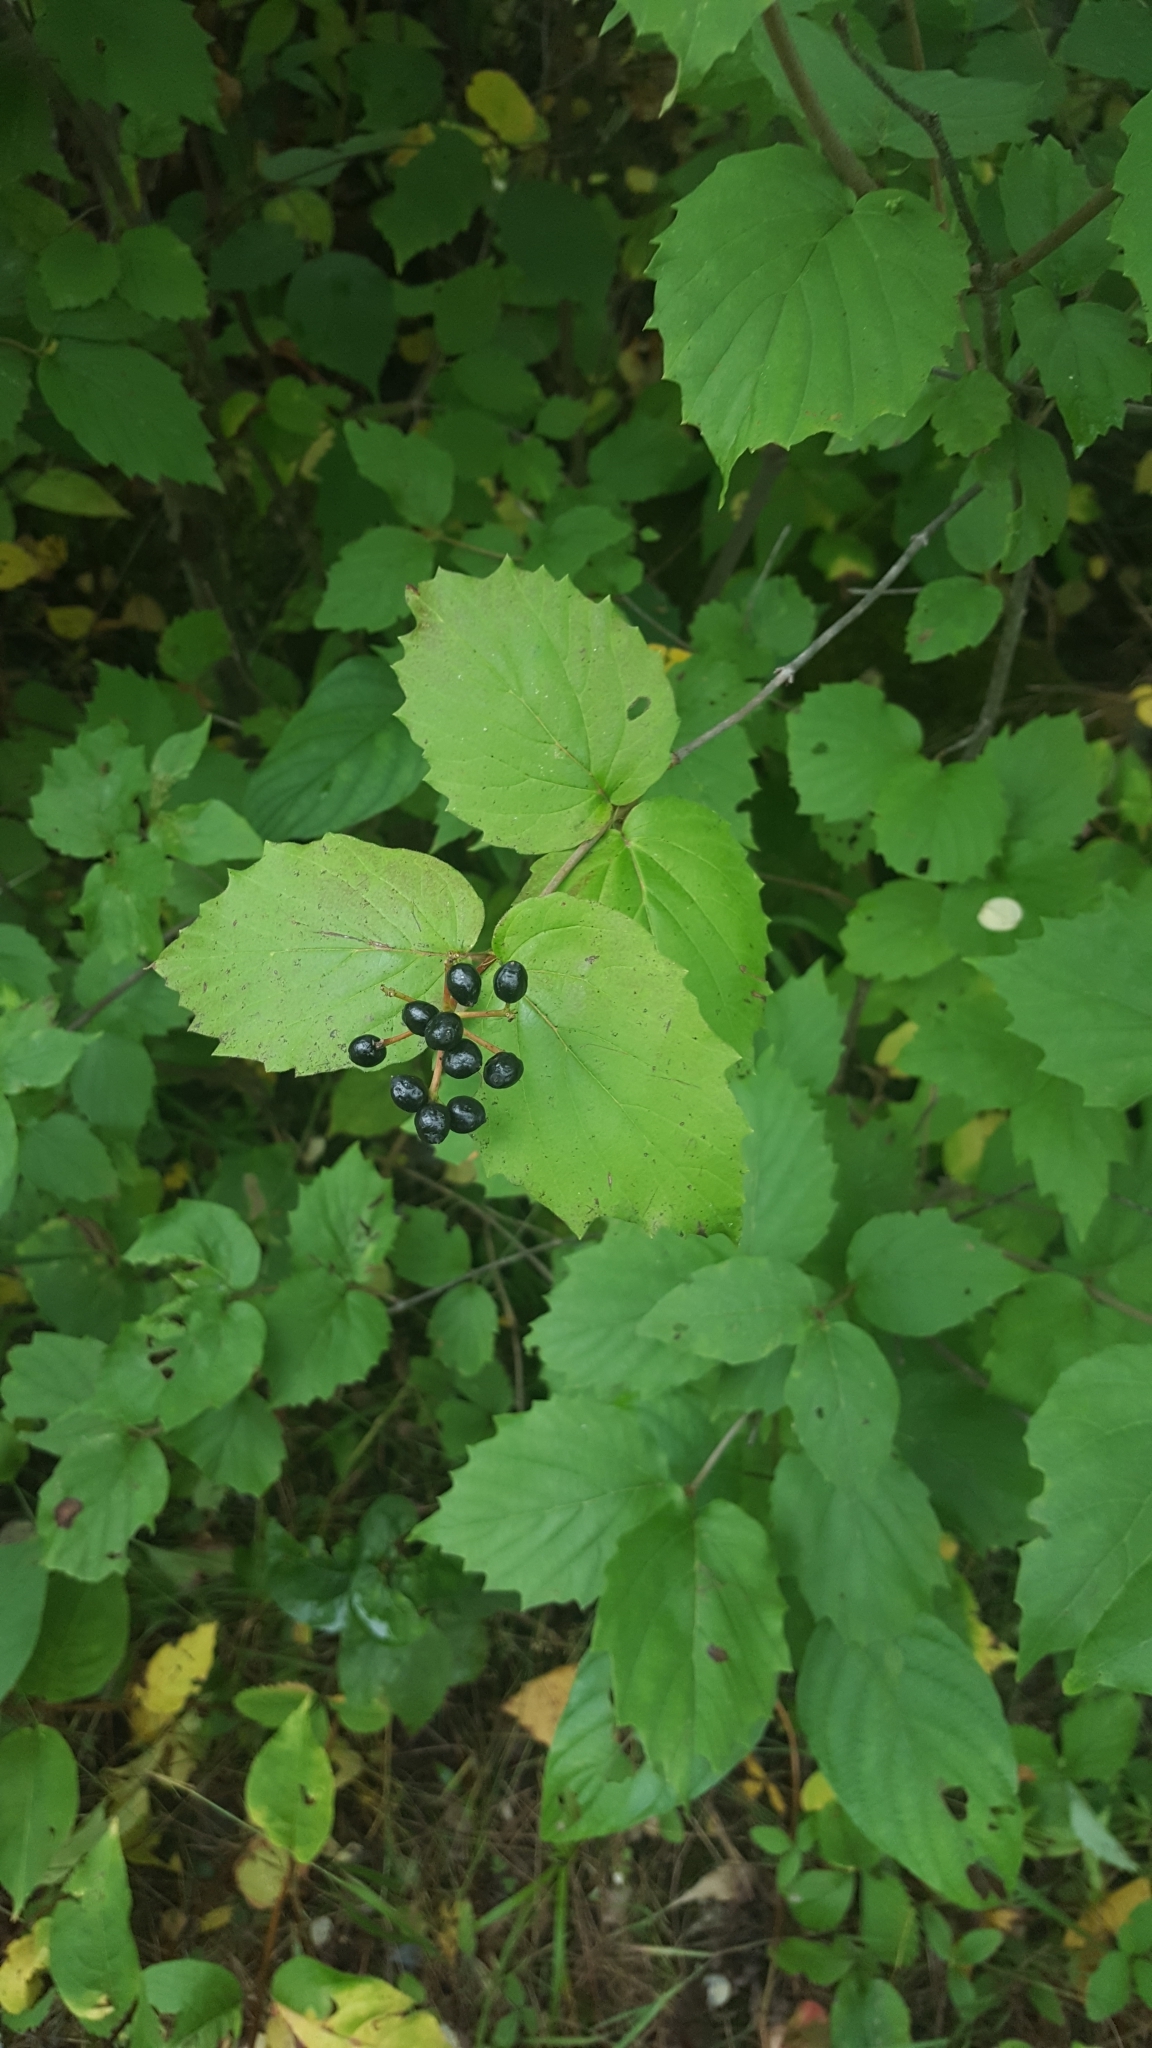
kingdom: Plantae
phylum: Tracheophyta
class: Magnoliopsida
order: Dipsacales
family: Viburnaceae
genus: Viburnum
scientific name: Viburnum rafinesqueanum
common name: Downy arrow-wood
